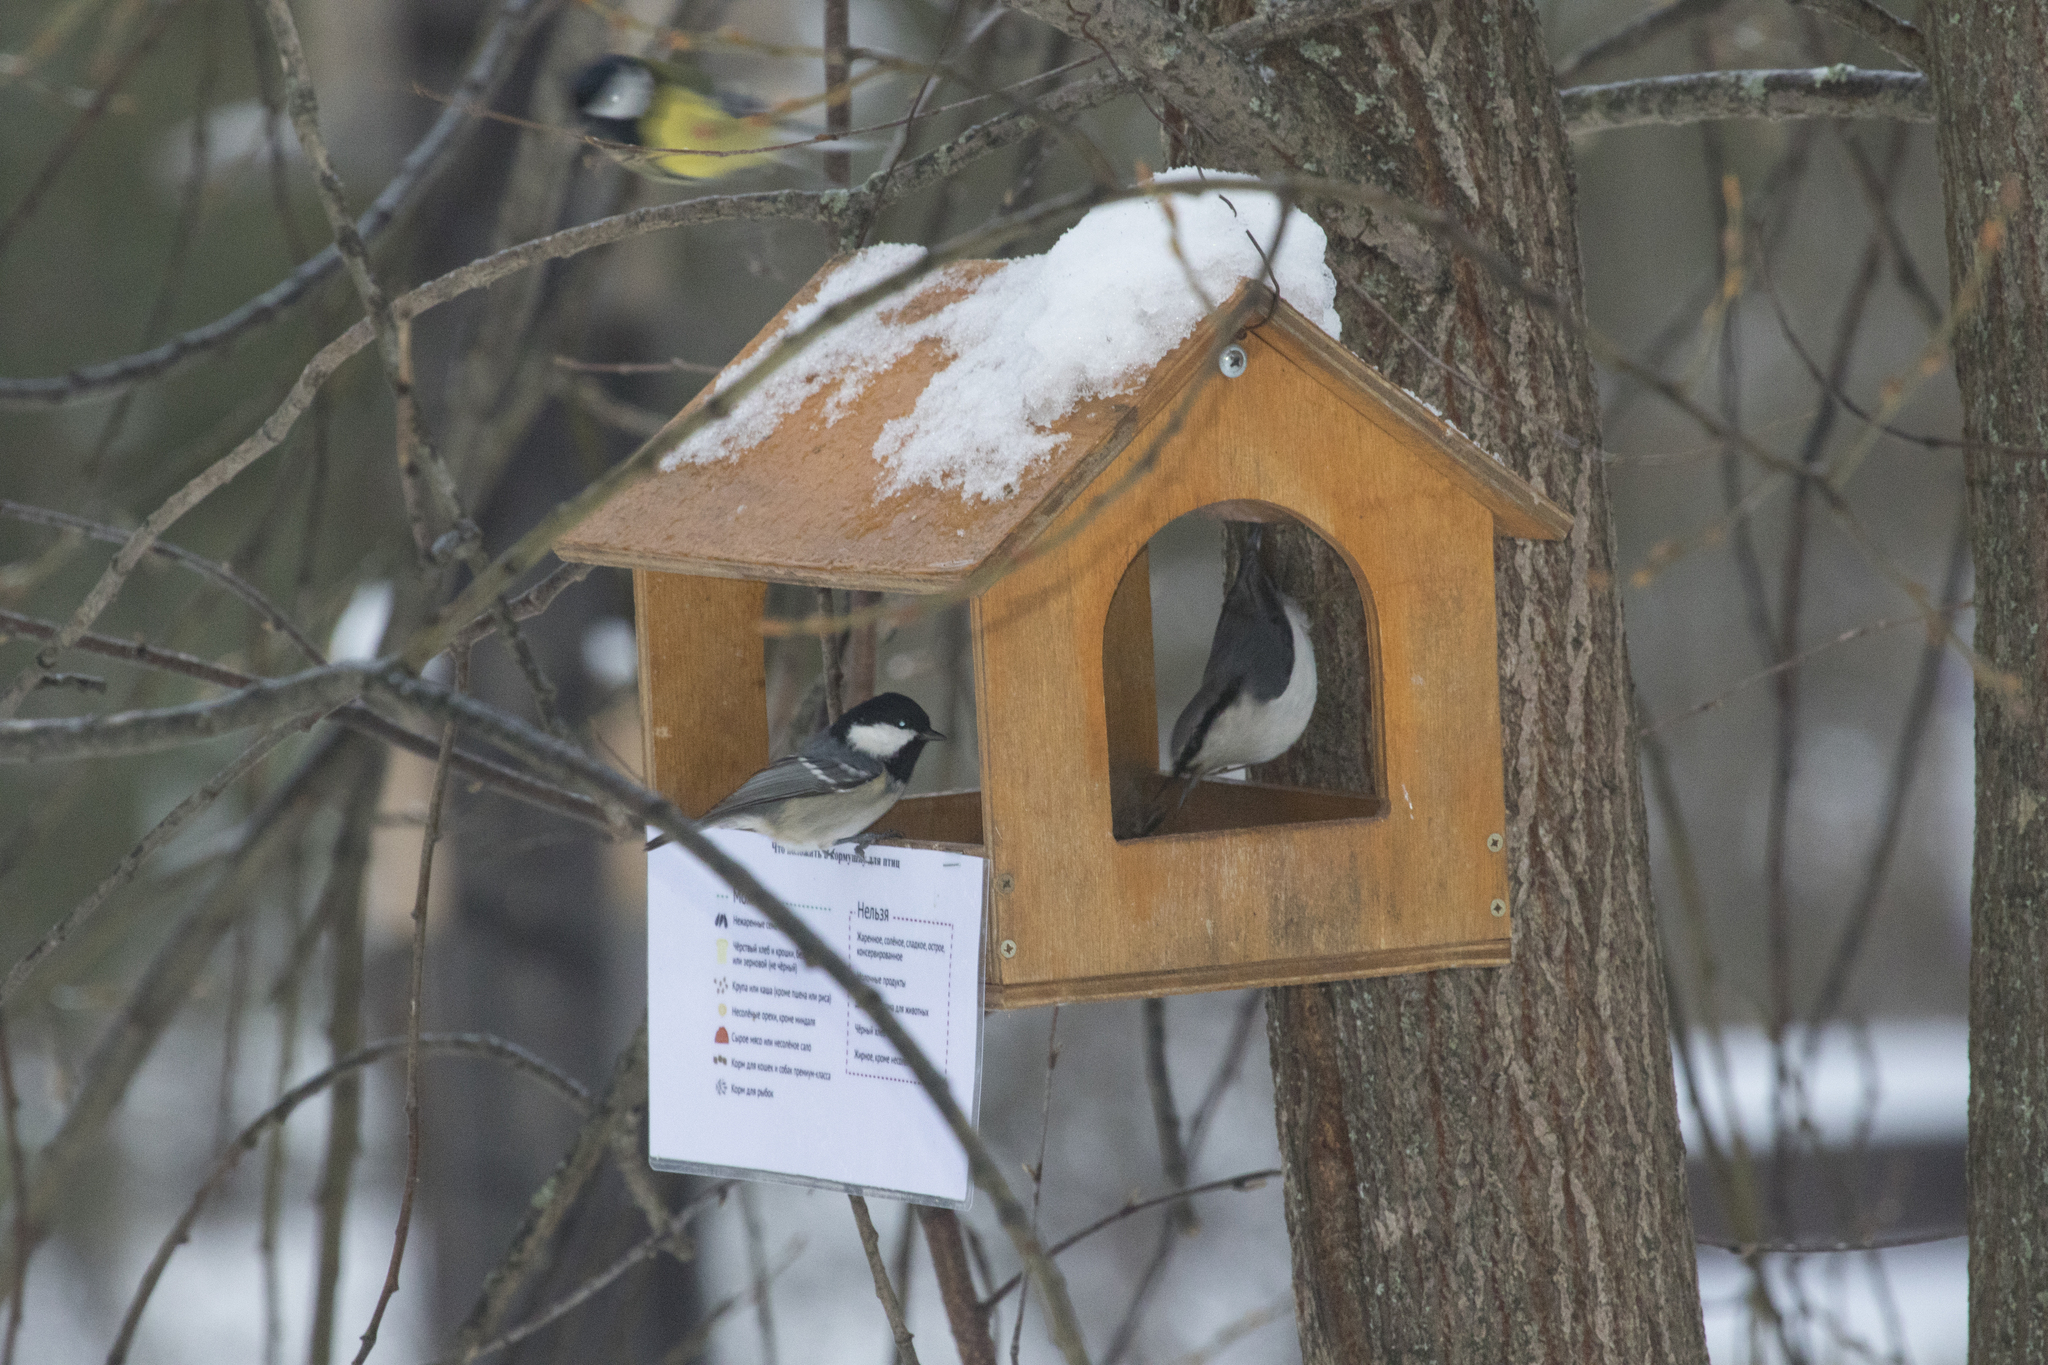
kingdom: Animalia
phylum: Chordata
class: Aves
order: Passeriformes
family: Paridae
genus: Periparus
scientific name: Periparus ater
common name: Coal tit
